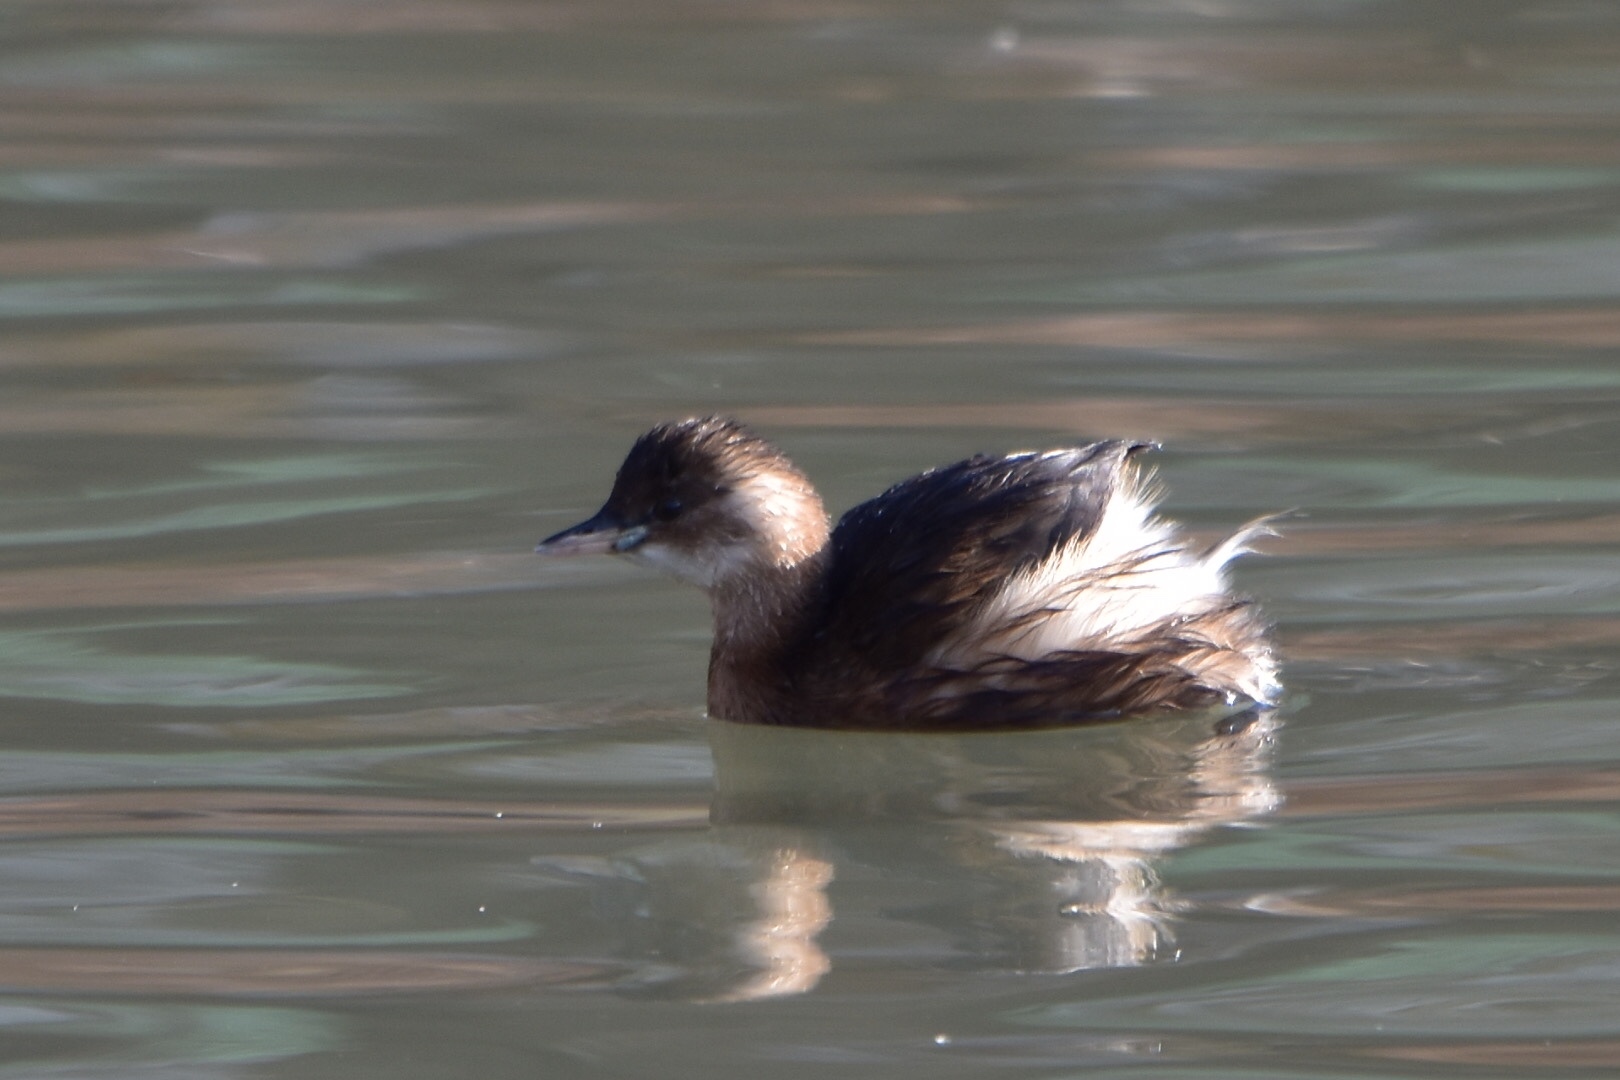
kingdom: Animalia
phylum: Chordata
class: Aves
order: Podicipediformes
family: Podicipedidae
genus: Tachybaptus
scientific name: Tachybaptus ruficollis
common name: Little grebe
